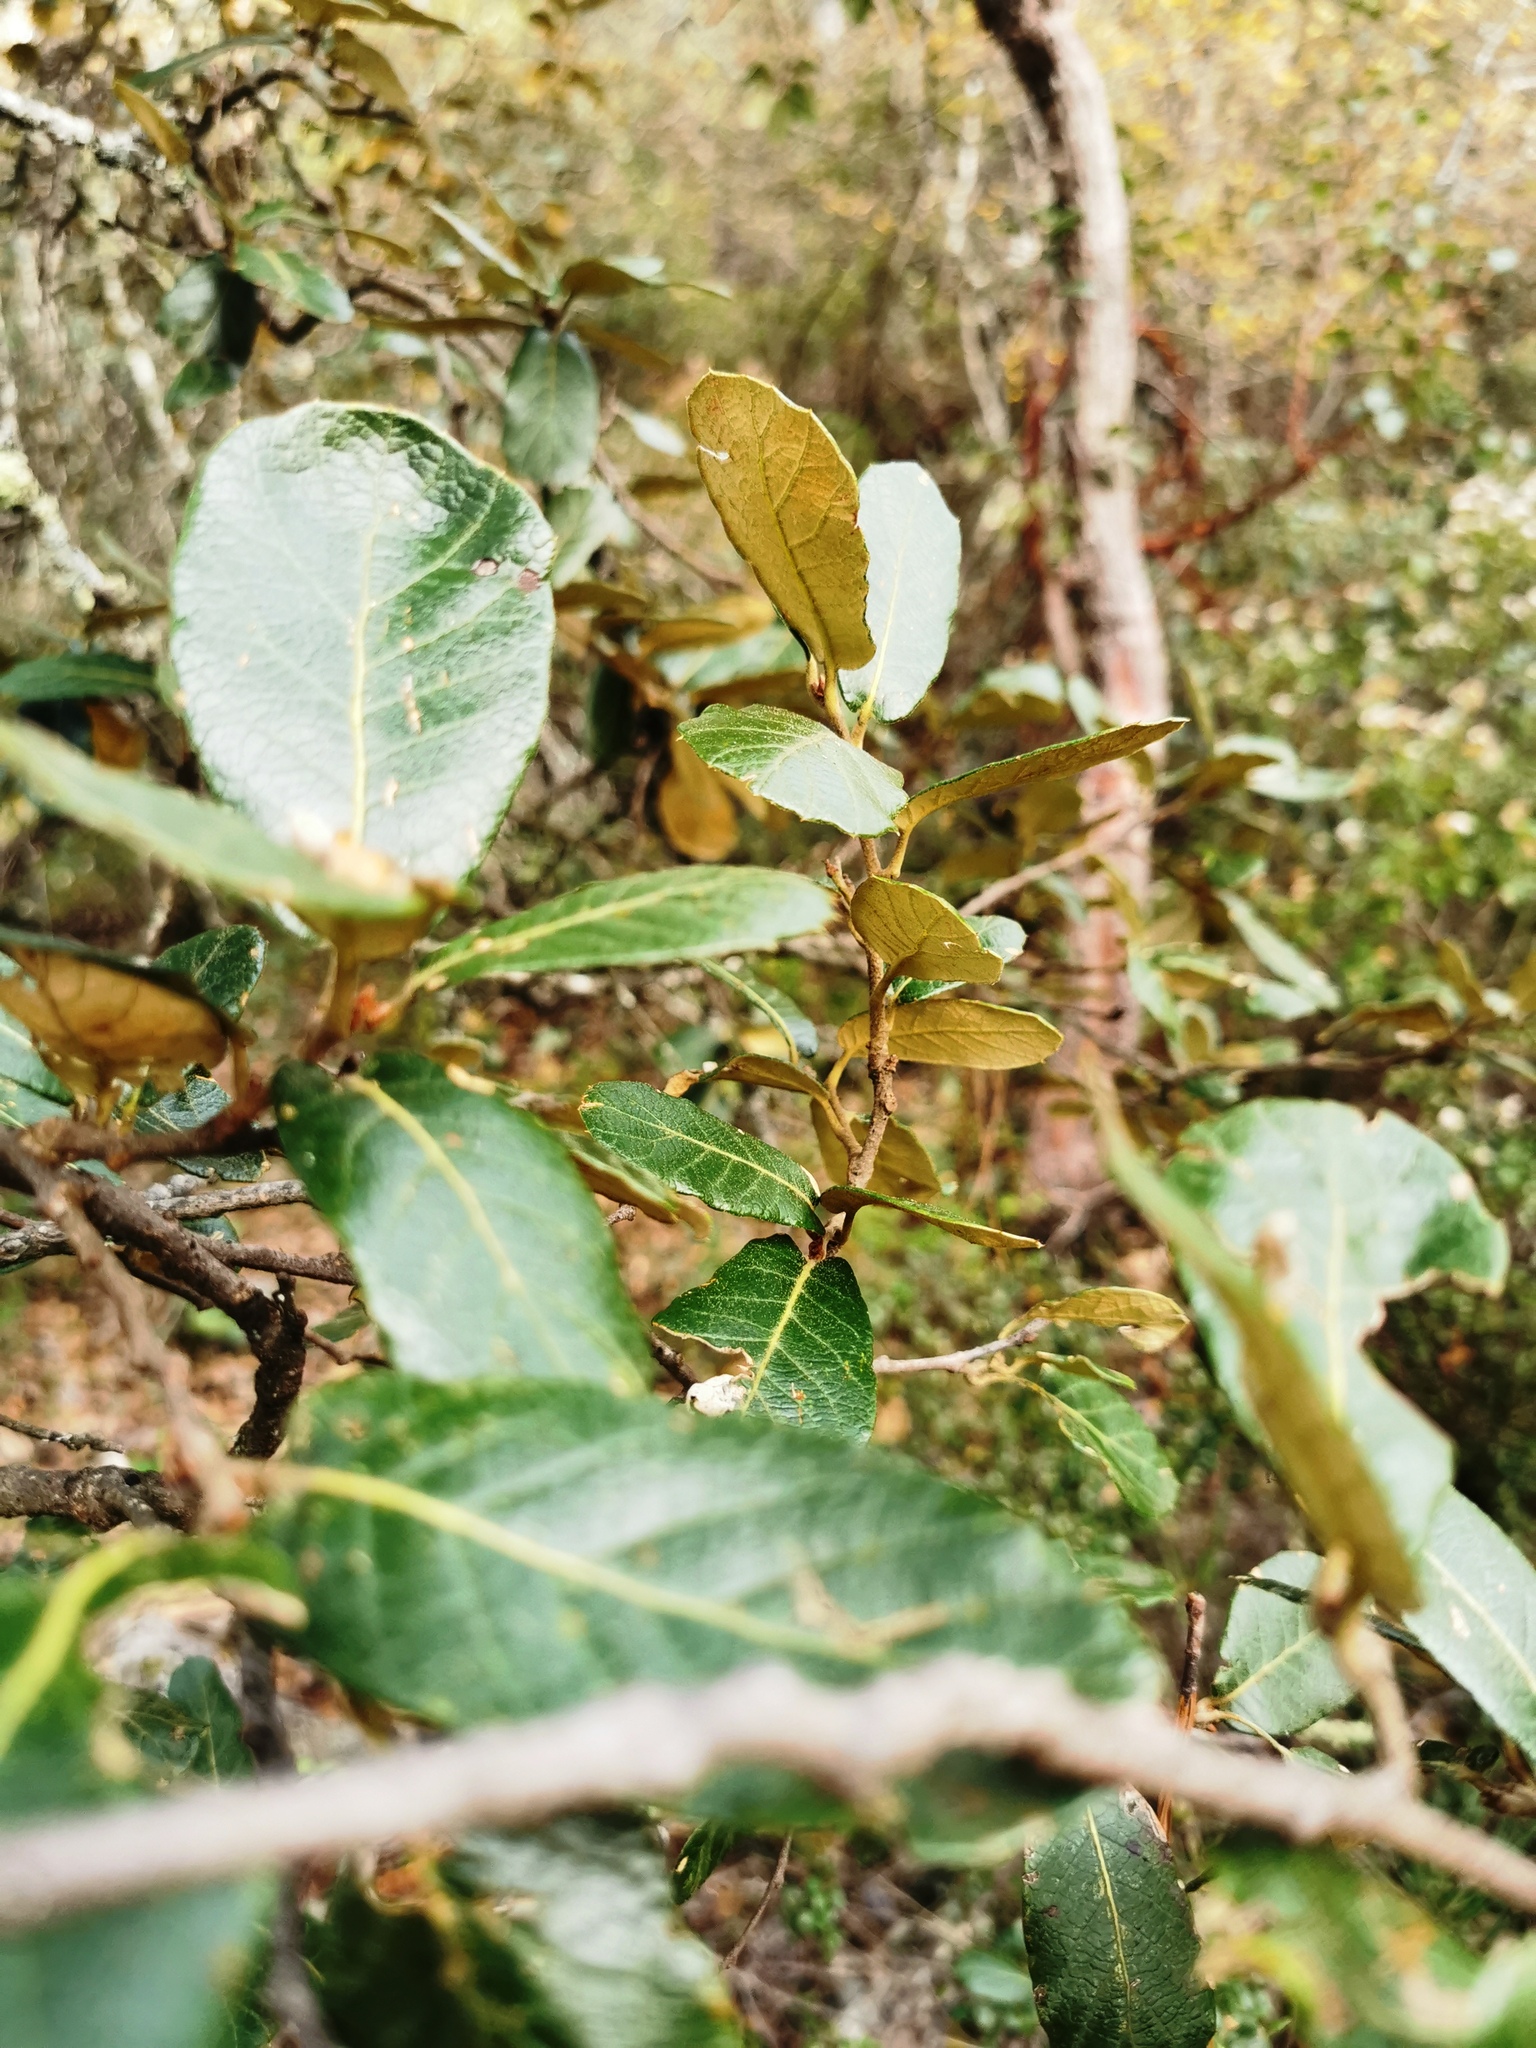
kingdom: Plantae
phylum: Tracheophyta
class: Magnoliopsida
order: Fagales
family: Fagaceae
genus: Quercus
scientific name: Quercus sideroxyla
